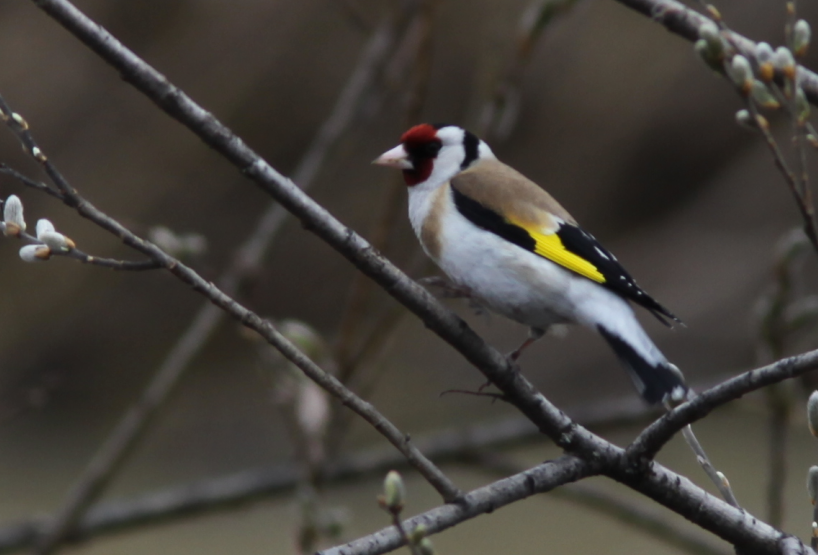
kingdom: Animalia
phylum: Chordata
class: Aves
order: Passeriformes
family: Fringillidae
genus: Carduelis
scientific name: Carduelis carduelis
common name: European goldfinch
